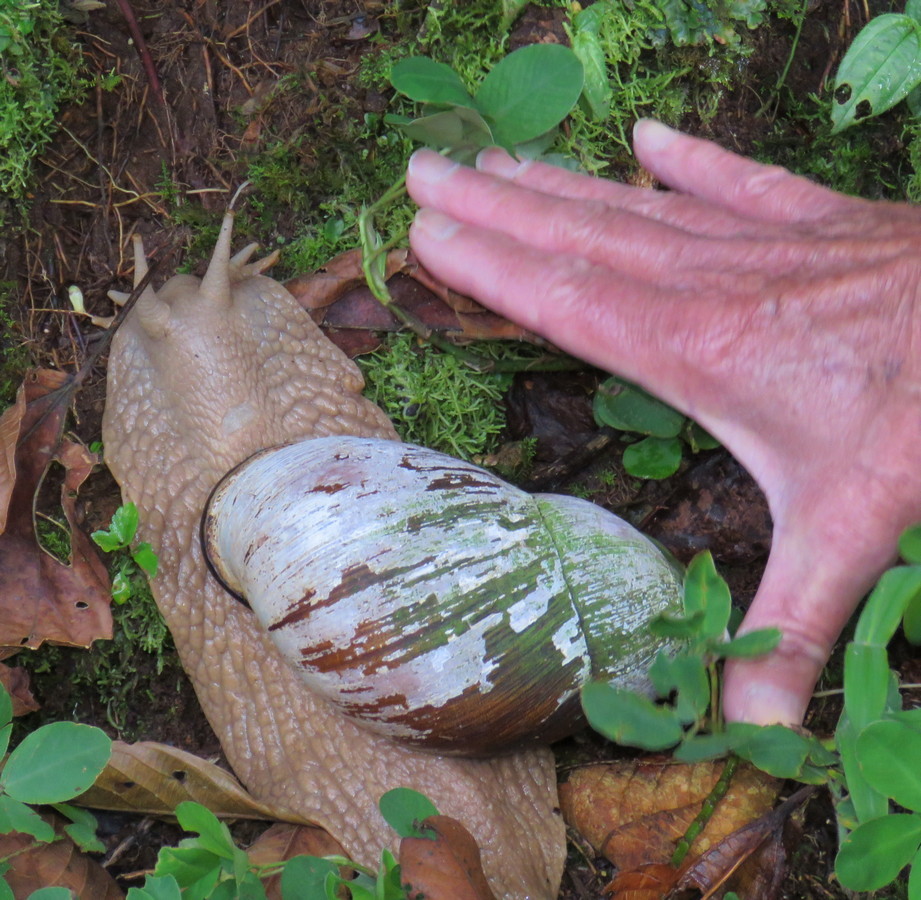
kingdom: Animalia
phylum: Mollusca
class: Gastropoda
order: Stylommatophora
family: Strophocheilidae
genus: Megalobulimus
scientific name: Megalobulimus popelairianus
